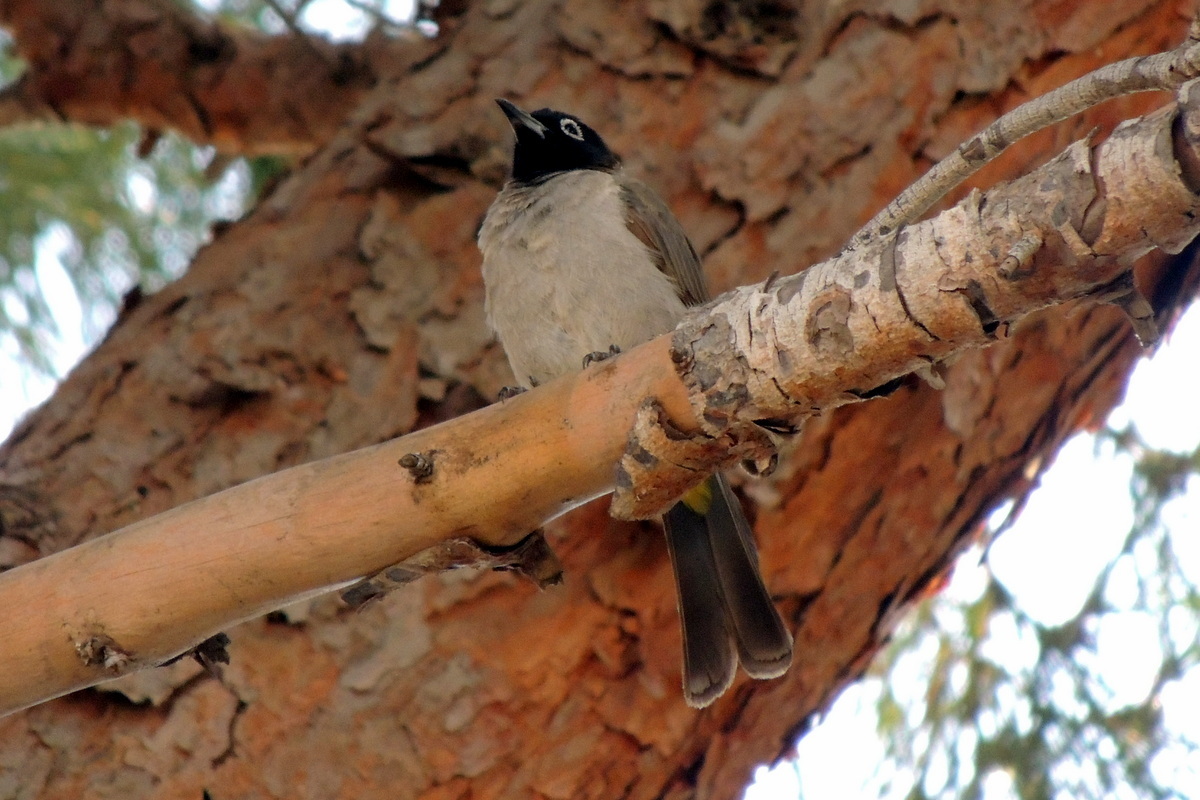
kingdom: Animalia
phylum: Chordata
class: Aves
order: Passeriformes
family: Pycnonotidae
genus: Pycnonotus
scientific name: Pycnonotus xanthopygos
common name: White-spectacled bulbul
